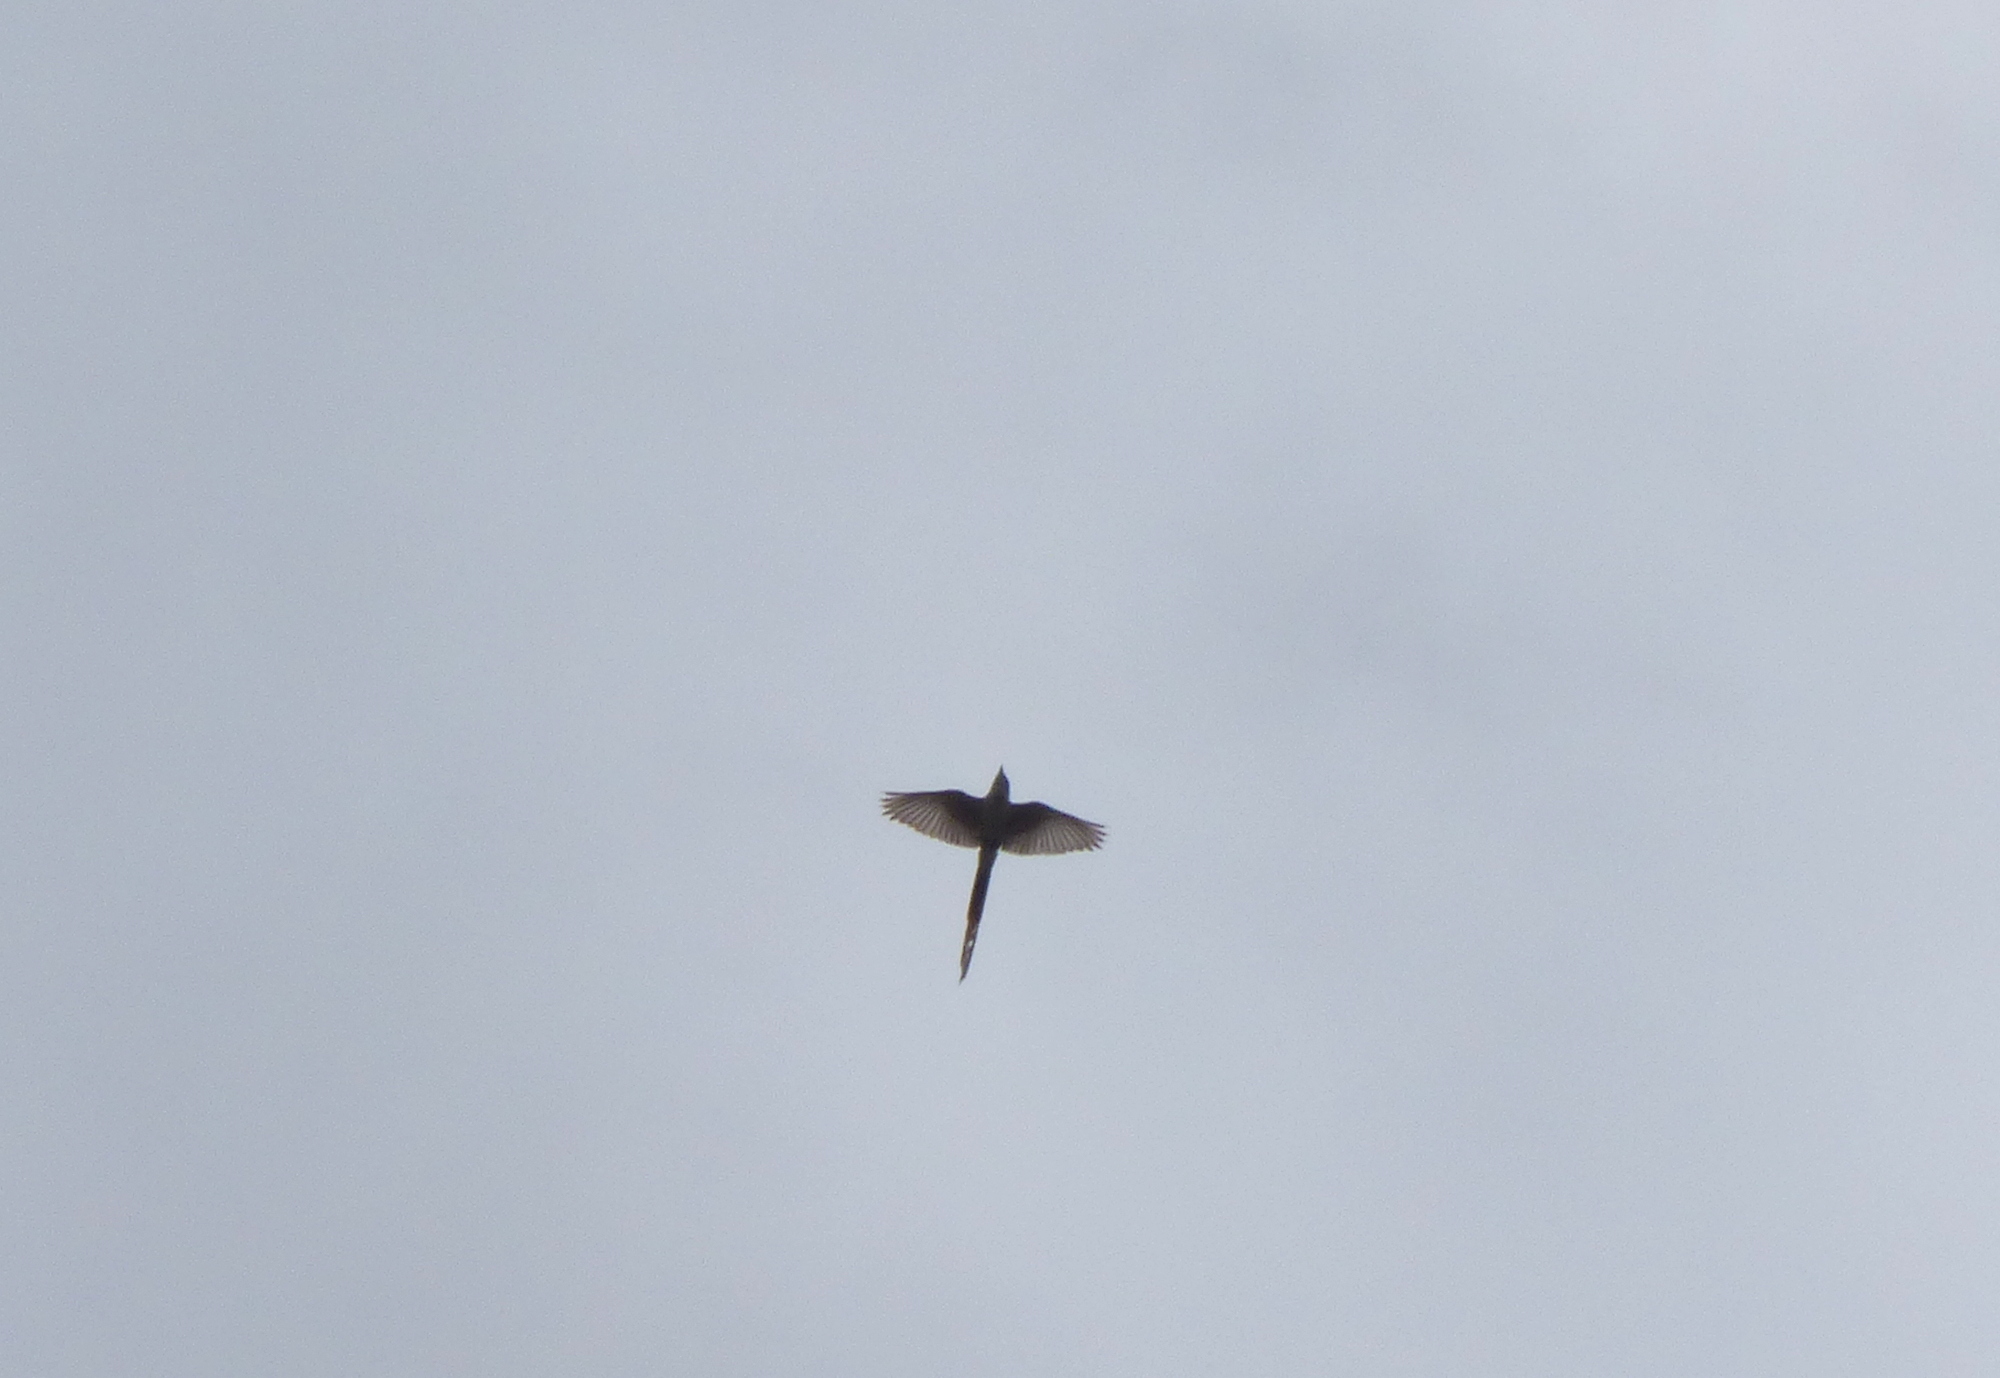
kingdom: Animalia
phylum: Chordata
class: Aves
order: Passeriformes
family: Tyrannidae
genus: Tyrannus
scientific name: Tyrannus savana
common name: Fork-tailed flycatcher
